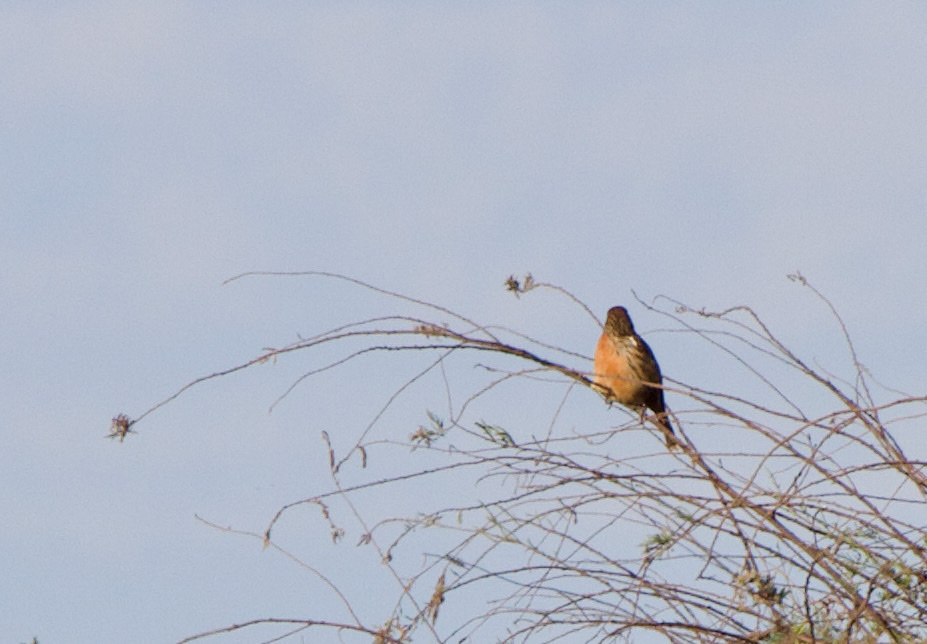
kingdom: Animalia
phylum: Chordata
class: Aves
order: Passeriformes
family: Cotingidae
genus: Phytotoma
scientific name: Phytotoma rara
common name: Rufous-tailed plantcutter
